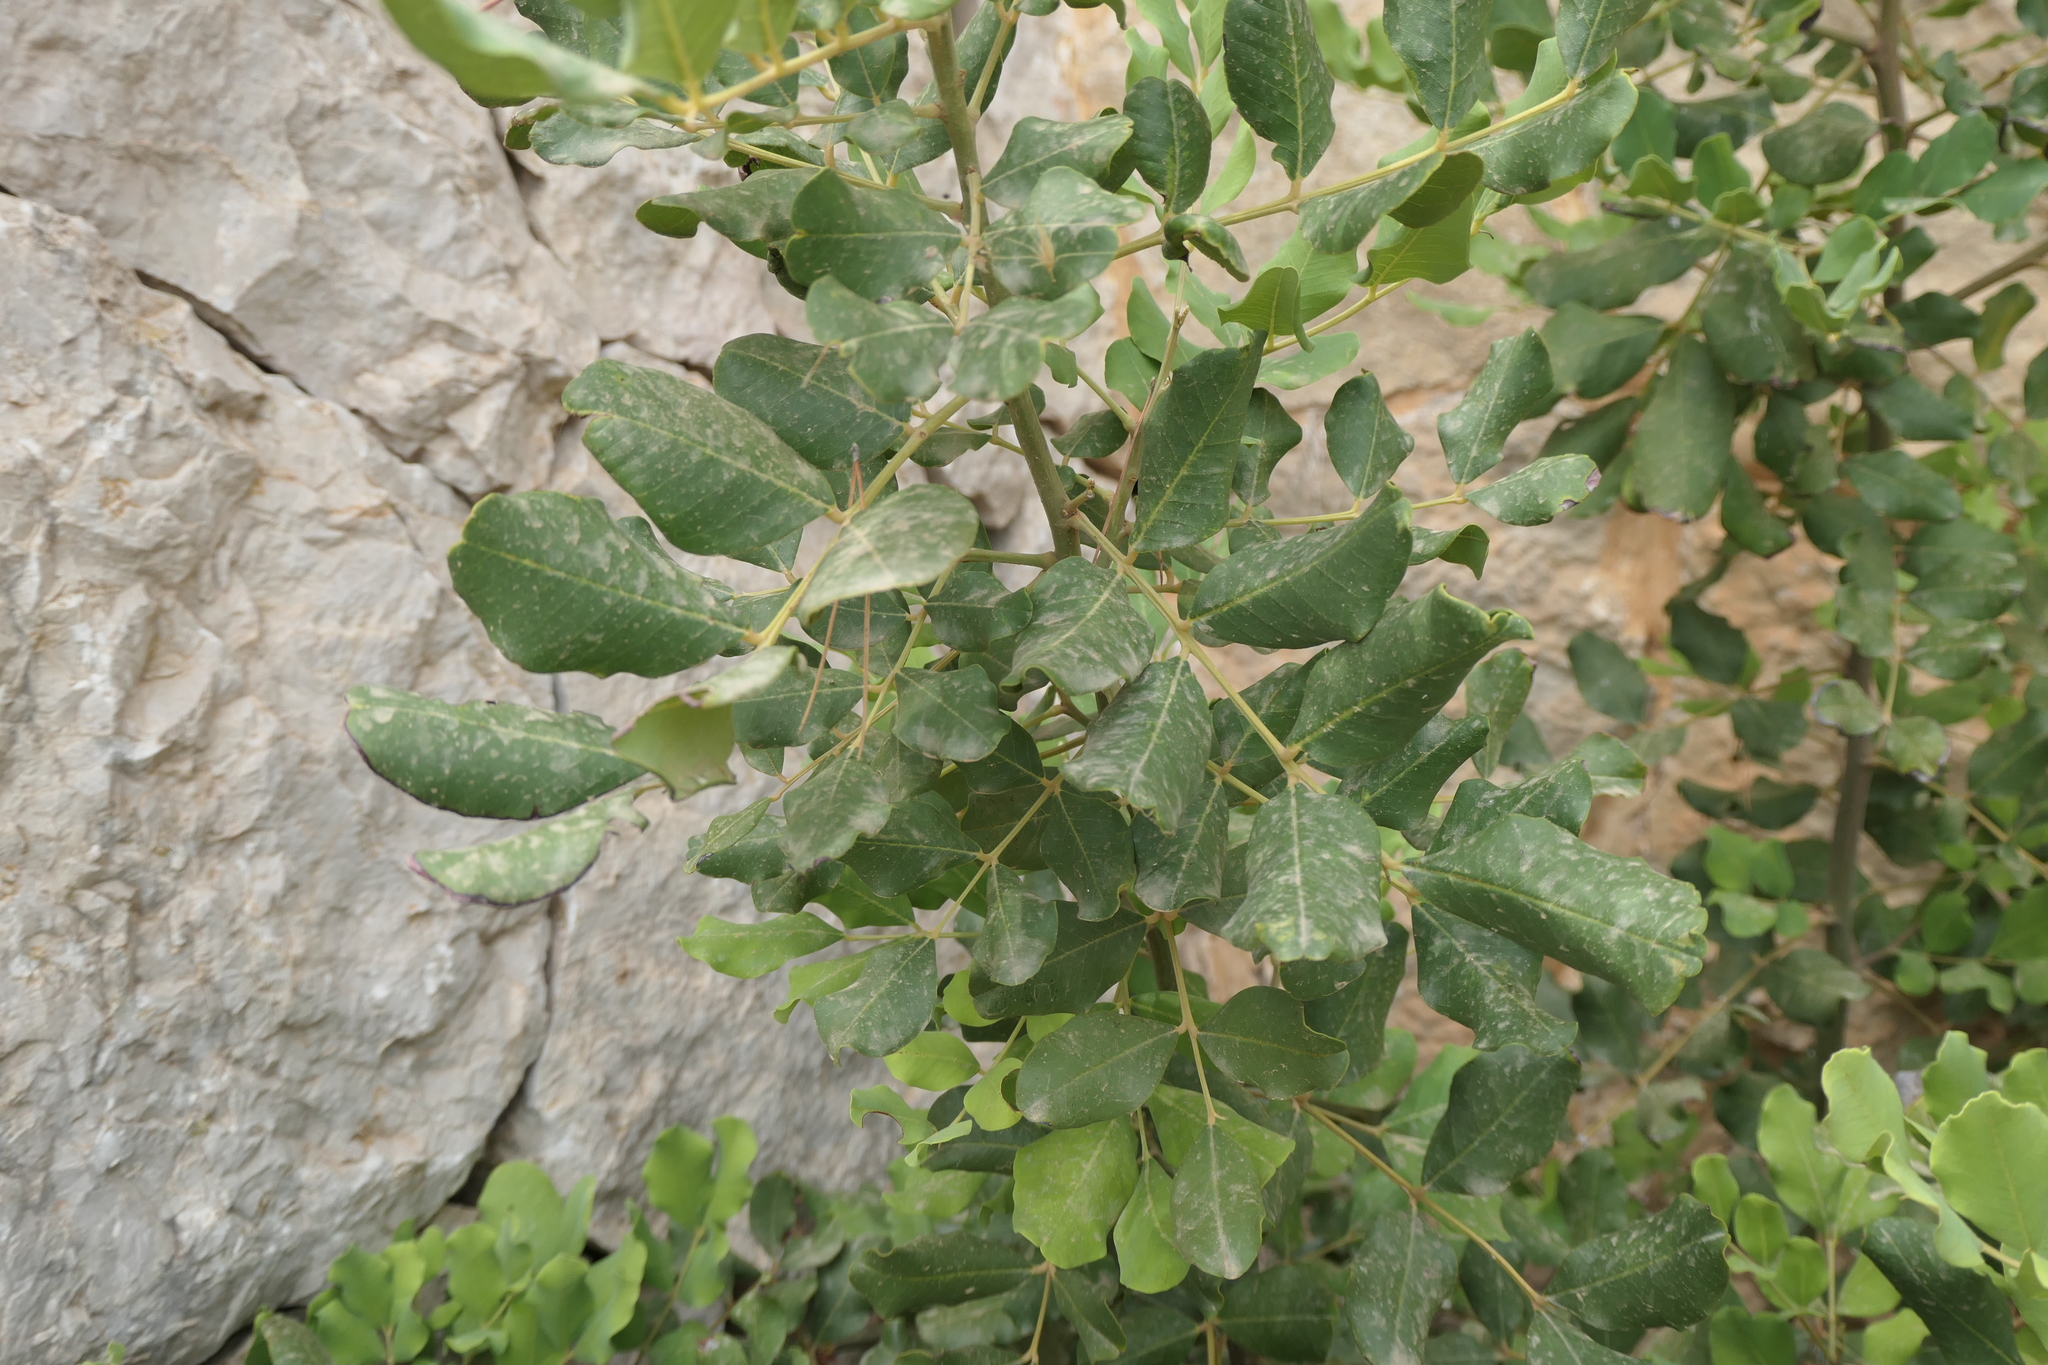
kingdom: Plantae
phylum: Tracheophyta
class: Magnoliopsida
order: Fabales
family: Fabaceae
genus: Ceratonia
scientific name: Ceratonia siliqua
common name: Carob
